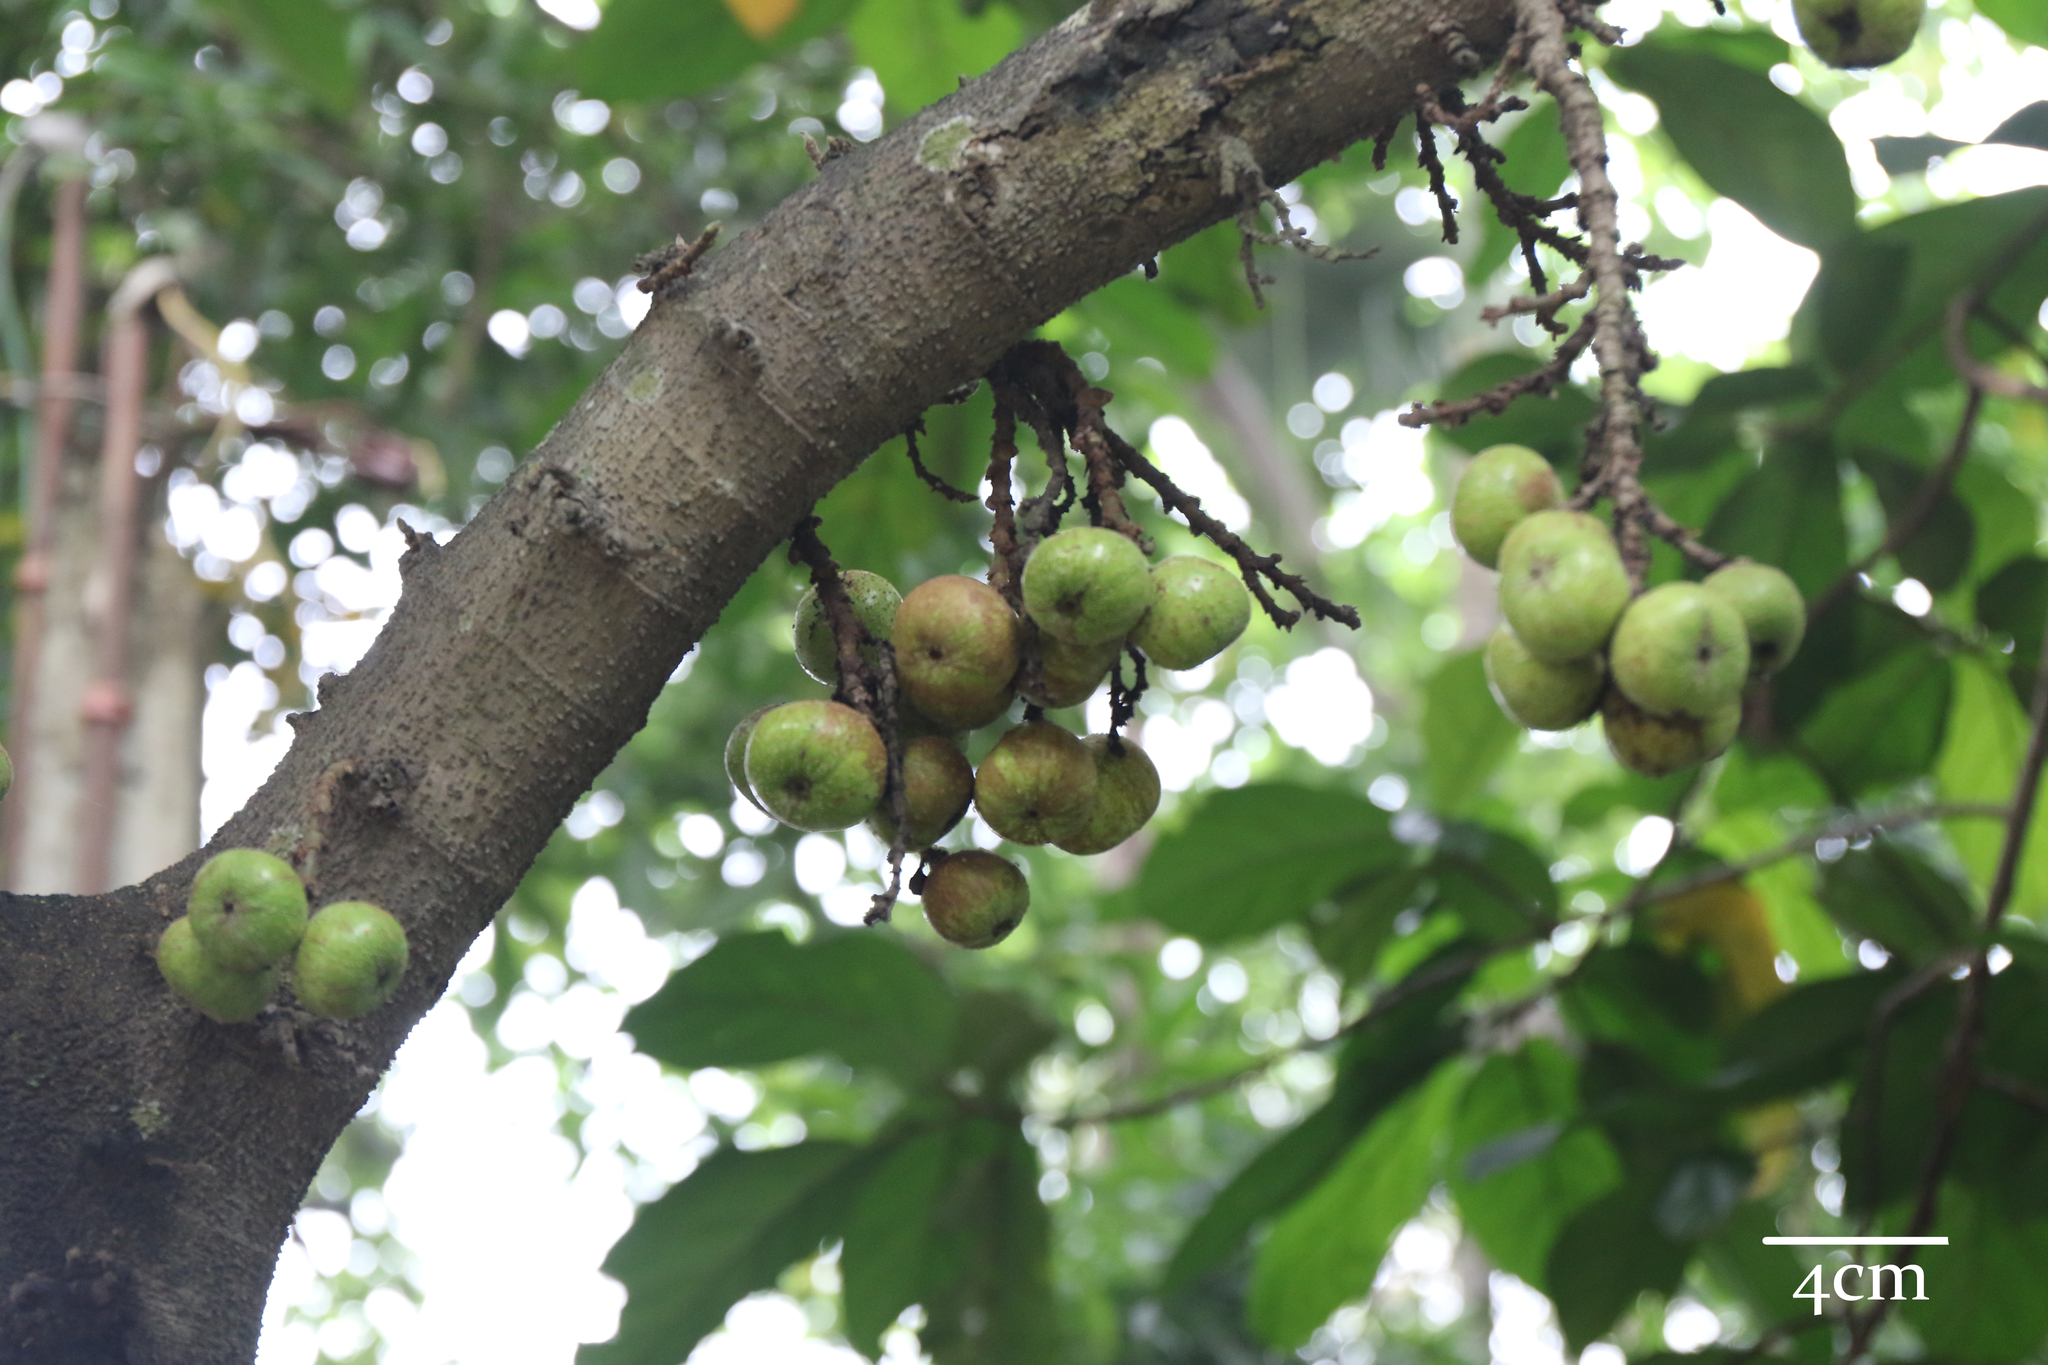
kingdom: Plantae
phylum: Tracheophyta
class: Magnoliopsida
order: Rosales
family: Moraceae
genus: Ficus
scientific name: Ficus nota
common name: Tibig
